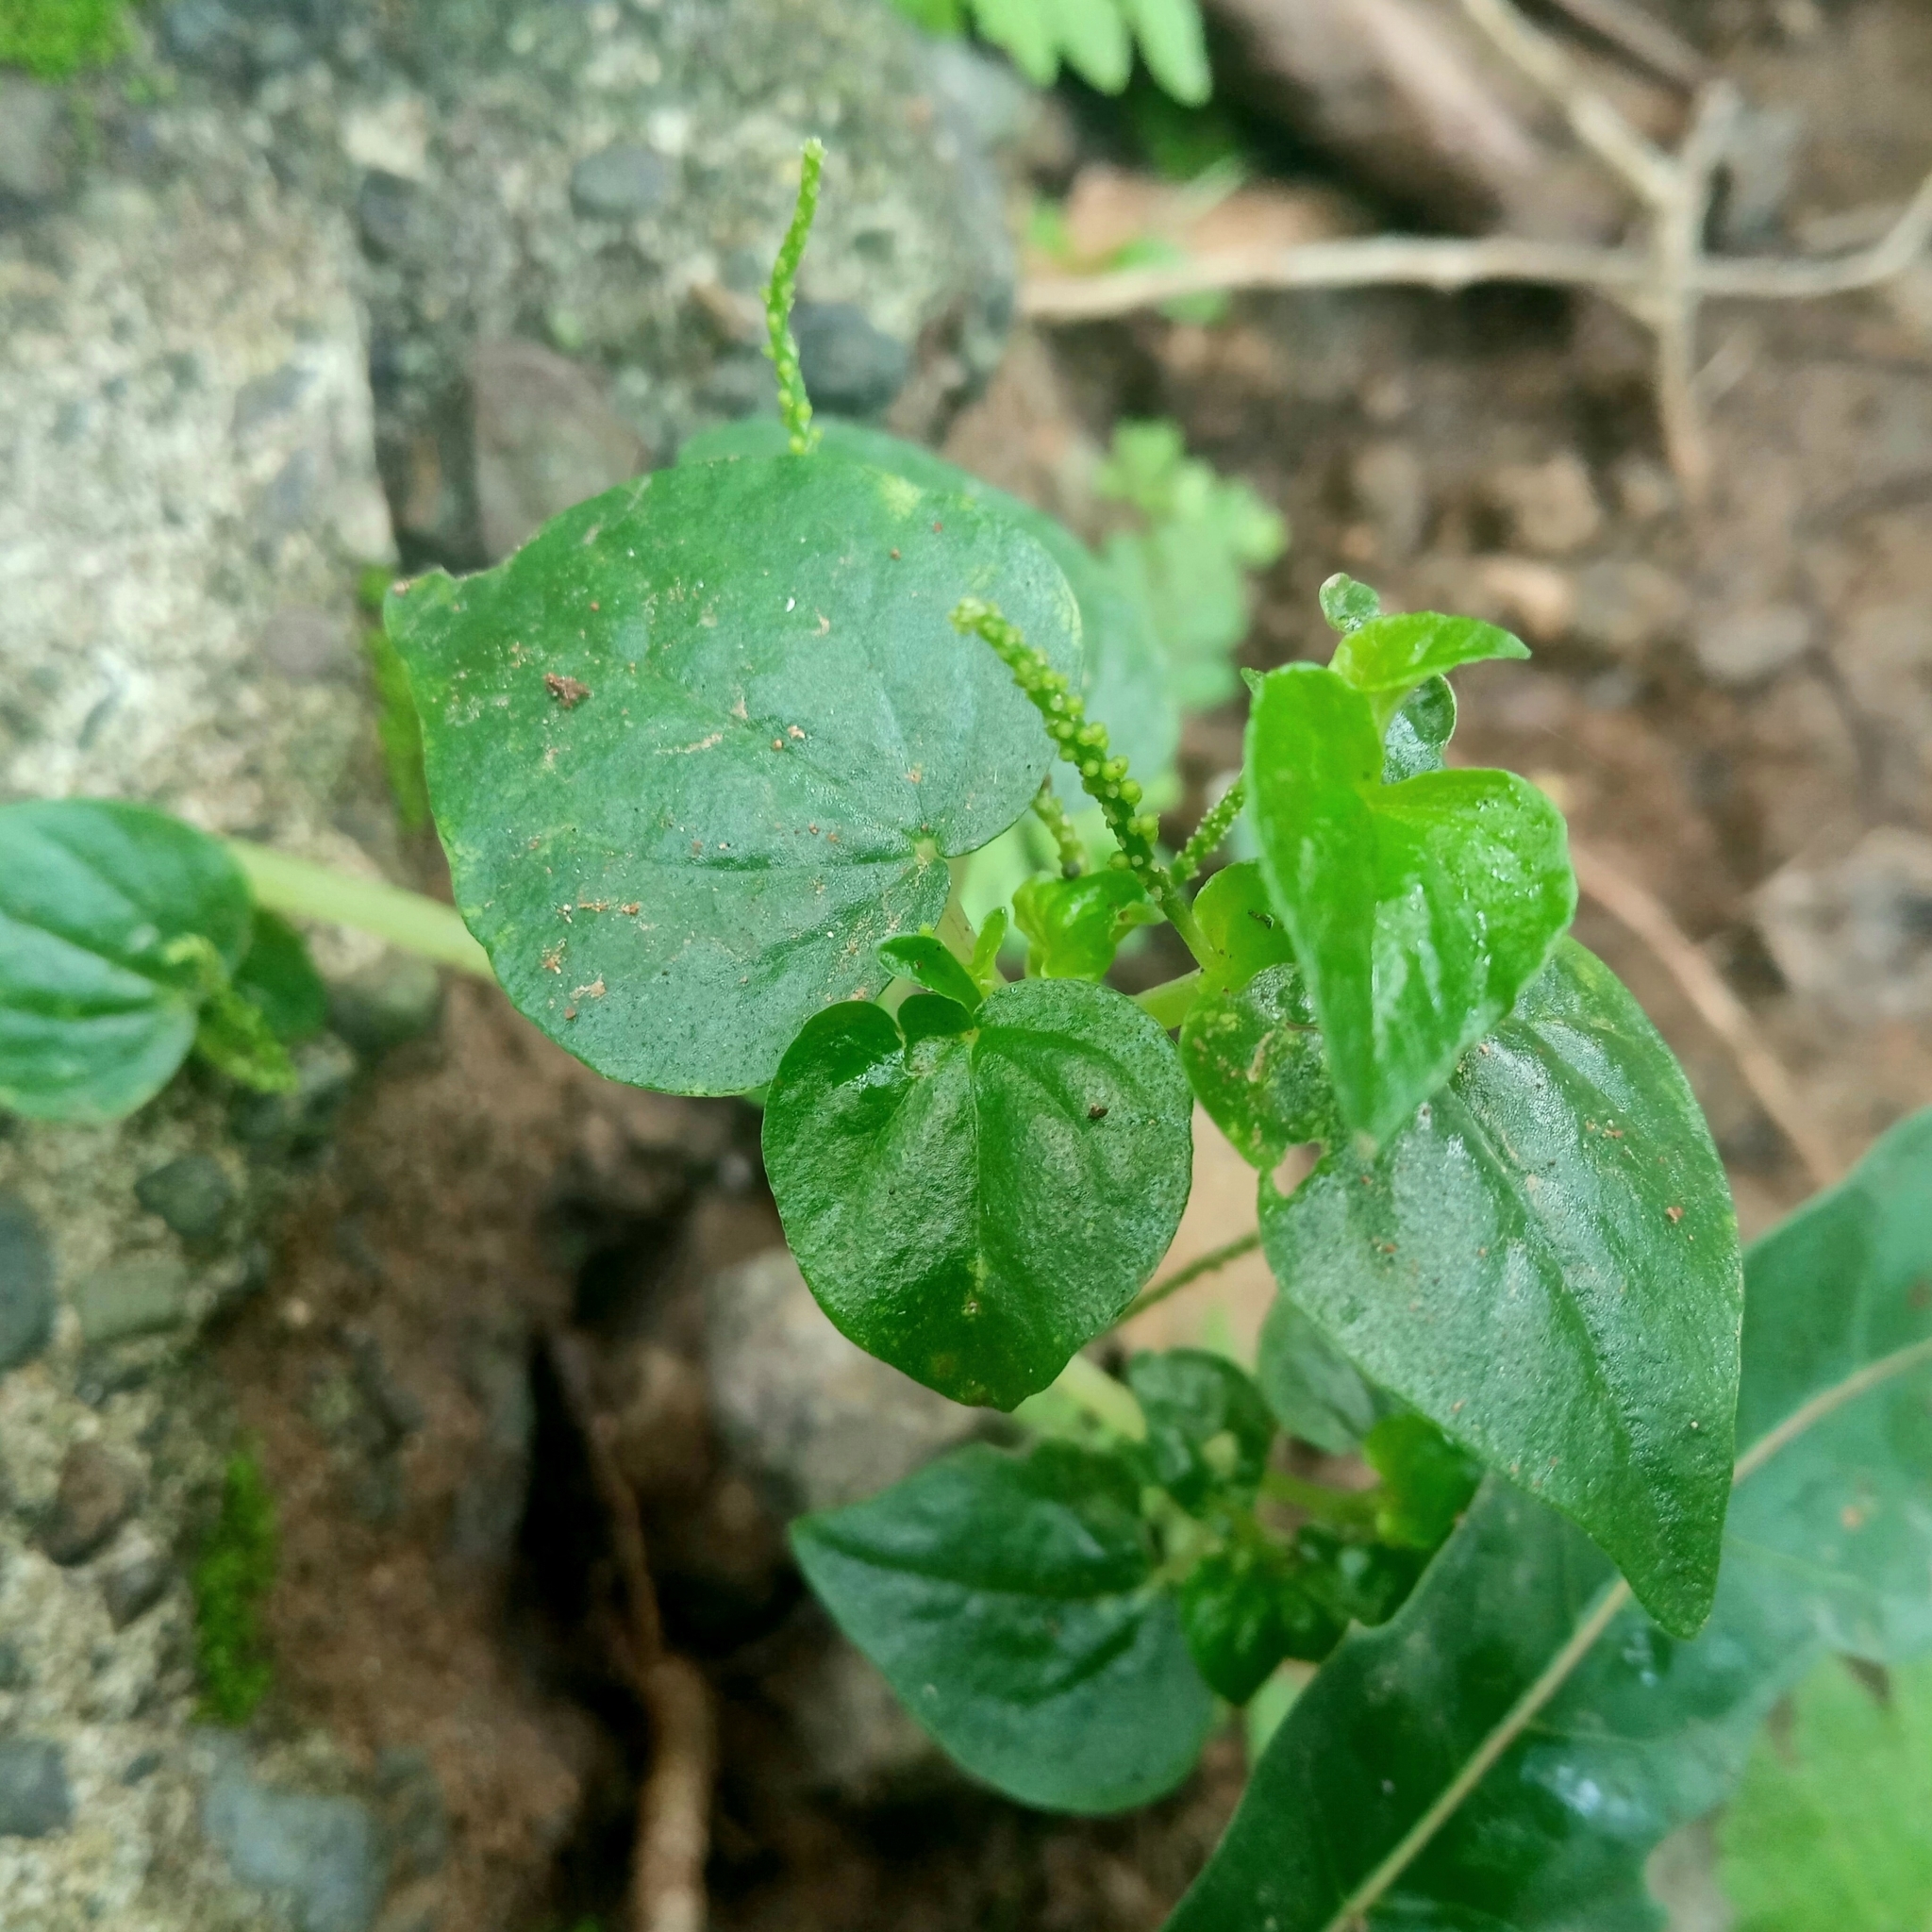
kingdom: Plantae
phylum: Tracheophyta
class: Magnoliopsida
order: Piperales
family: Piperaceae
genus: Peperomia
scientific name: Peperomia pellucida
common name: Man to man
